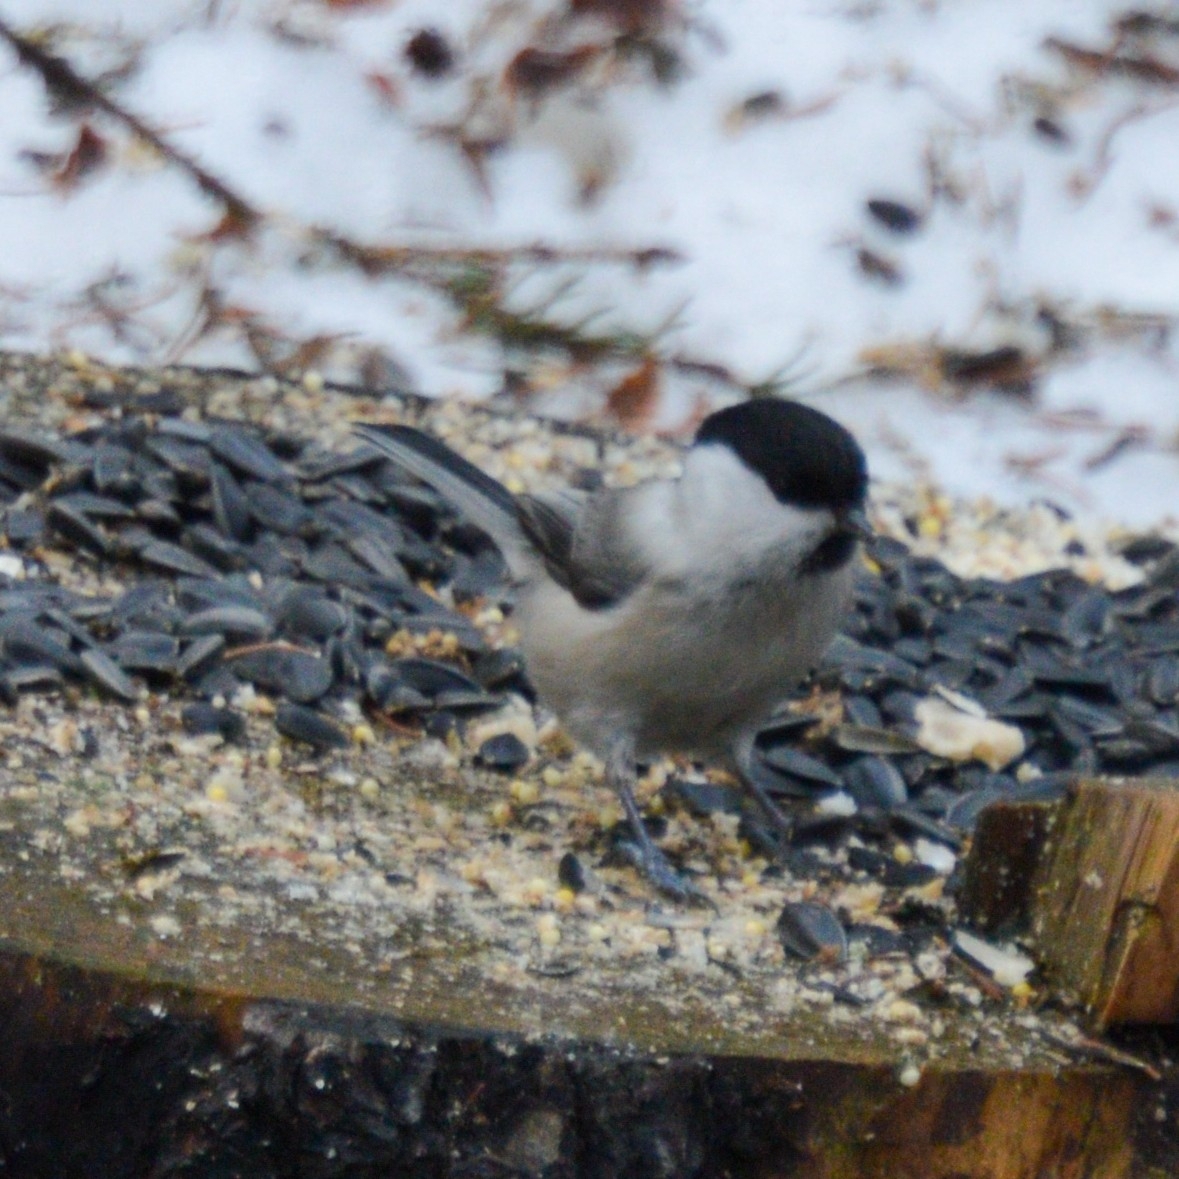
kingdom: Animalia
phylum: Chordata
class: Aves
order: Passeriformes
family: Paridae
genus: Poecile
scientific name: Poecile montanus
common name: Willow tit
